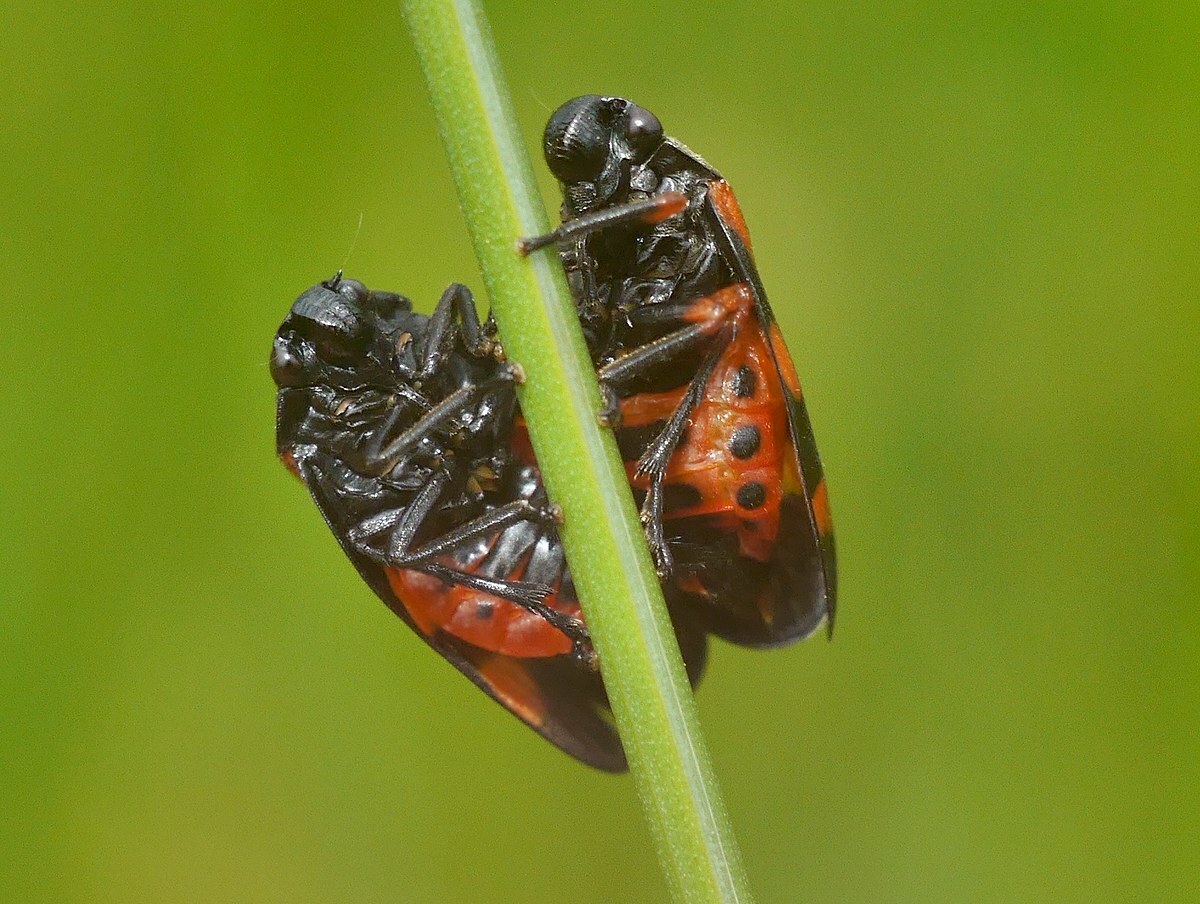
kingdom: Animalia
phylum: Arthropoda
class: Insecta
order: Hemiptera
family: Cercopidae
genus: Cercopis
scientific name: Cercopis sanguinolenta
